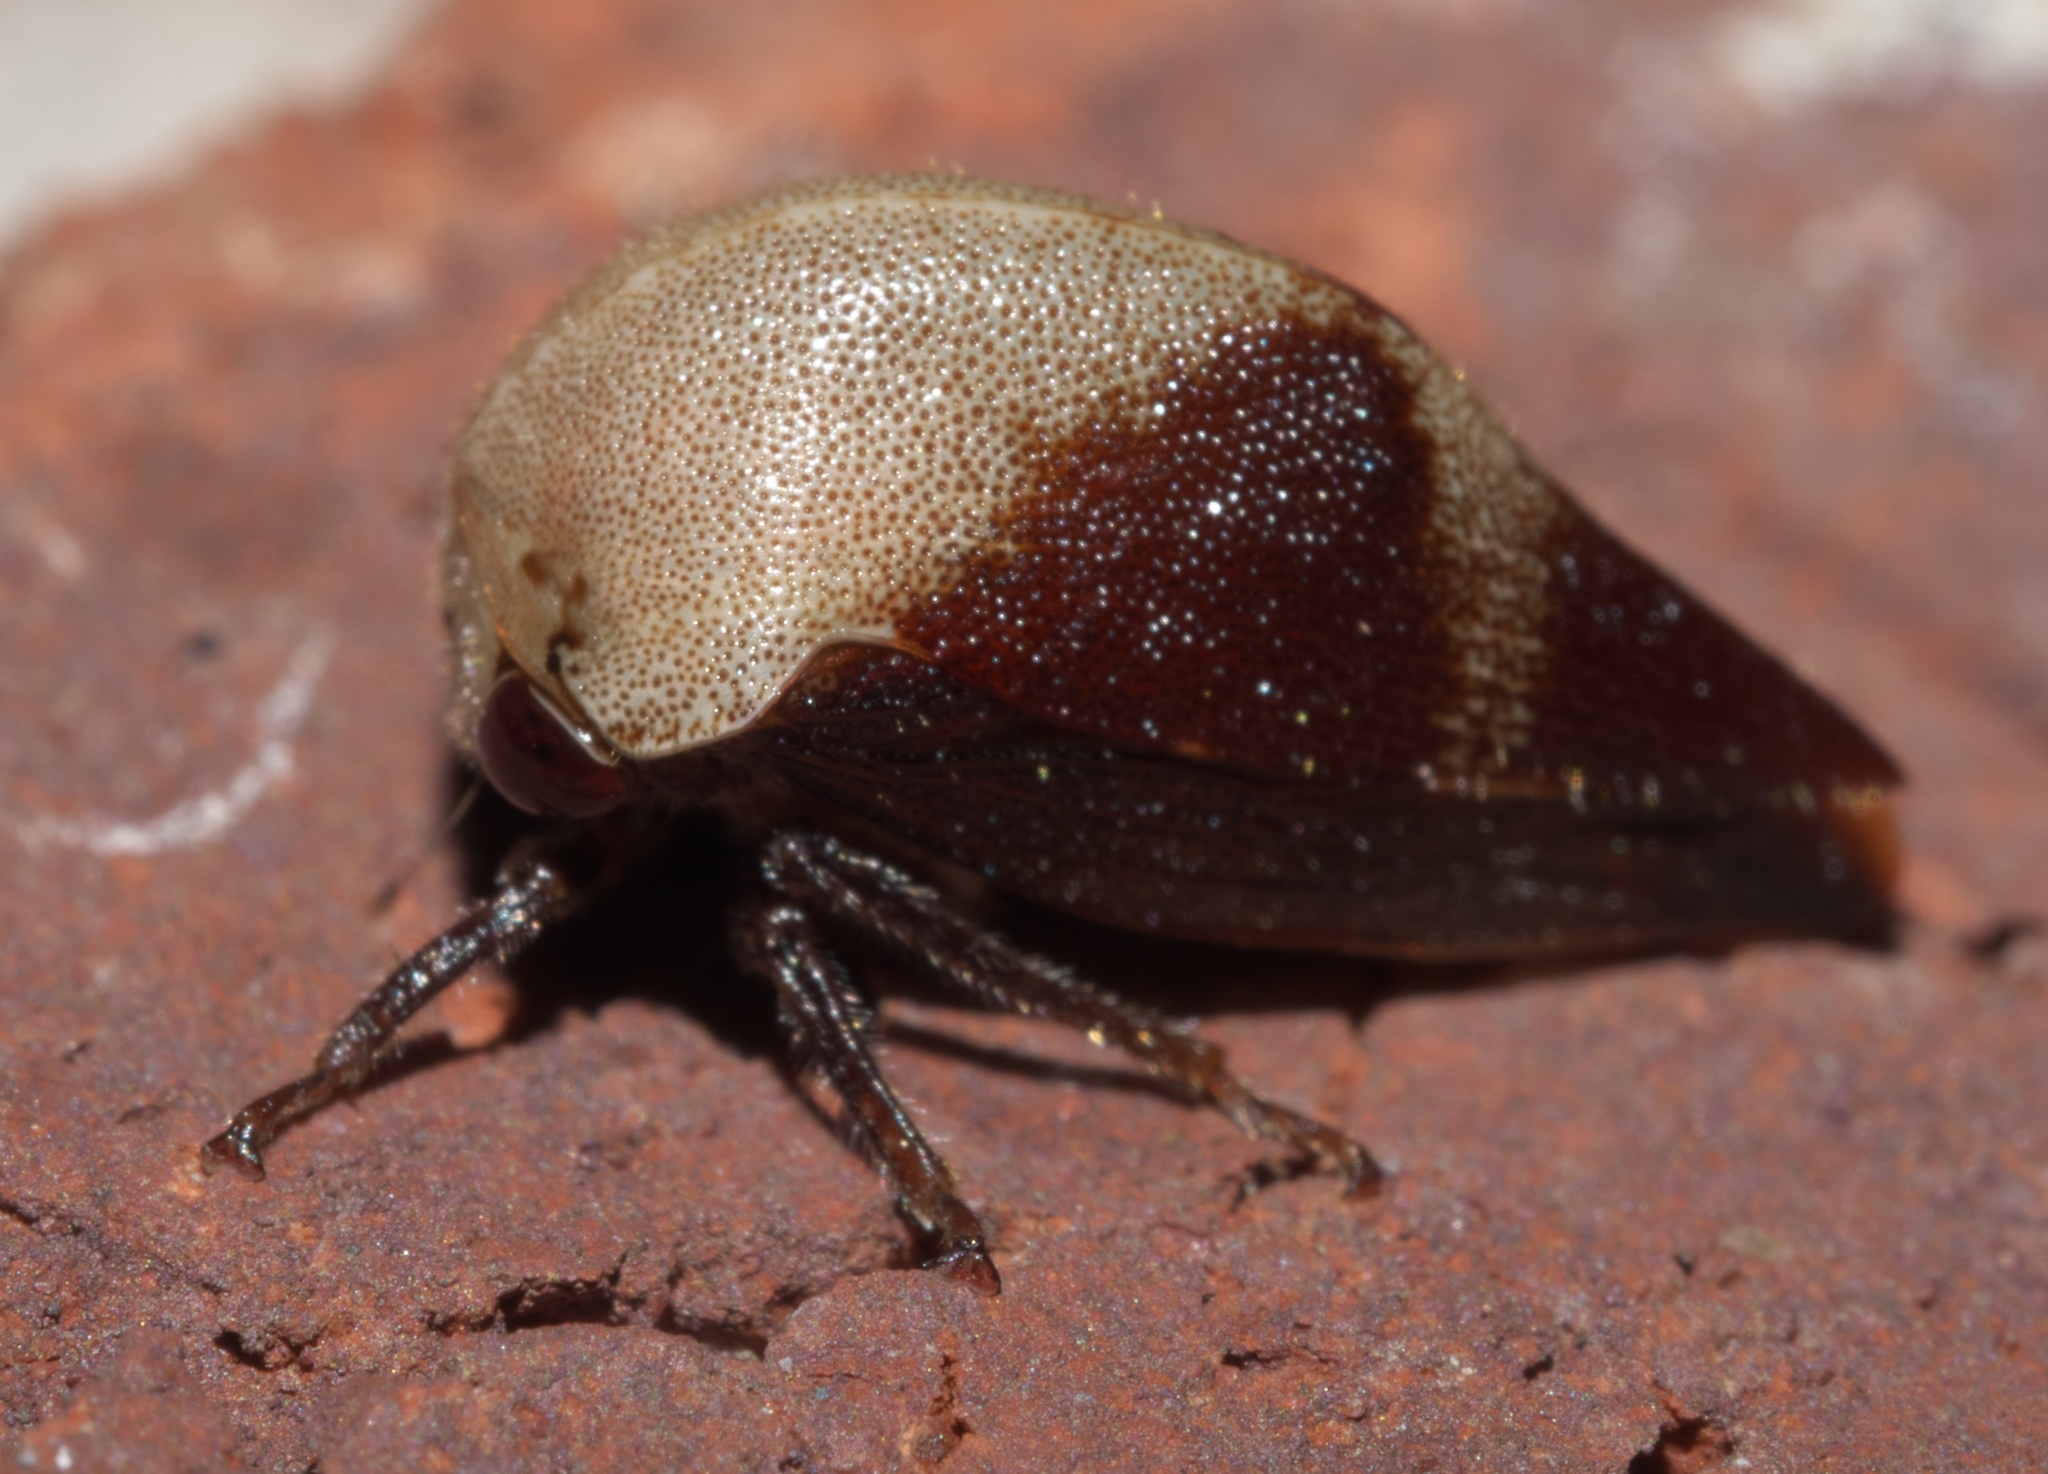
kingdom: Animalia
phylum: Arthropoda
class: Insecta
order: Hemiptera
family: Membracidae
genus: Carynota
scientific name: Carynota mera
